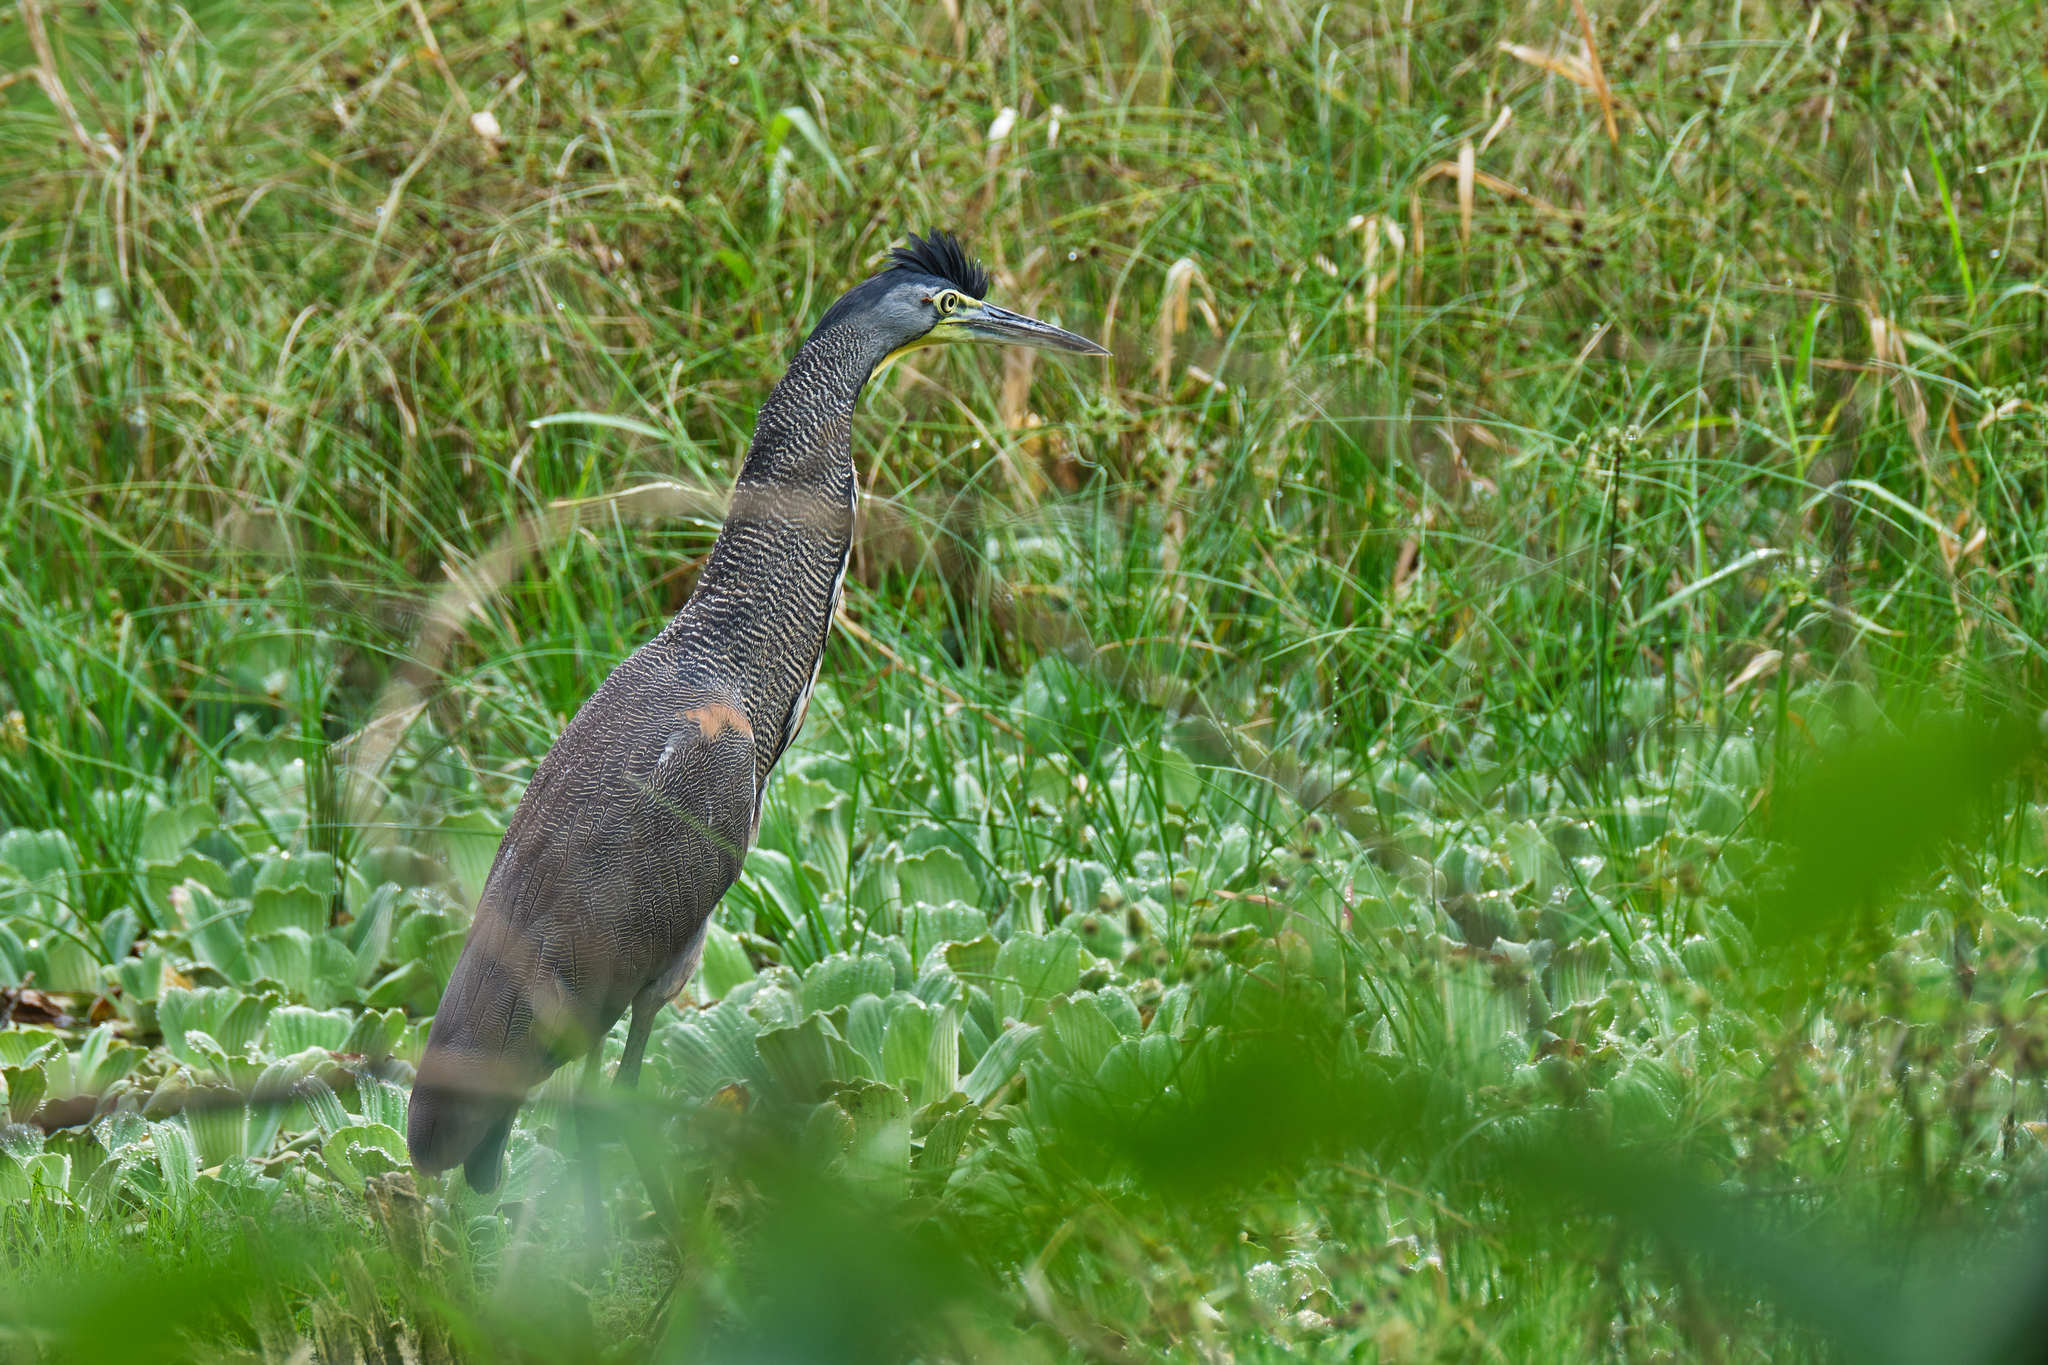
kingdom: Animalia
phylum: Chordata
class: Aves
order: Pelecaniformes
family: Ardeidae
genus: Tigrisoma
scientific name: Tigrisoma mexicanum
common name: Bare-throated tiger-heron
